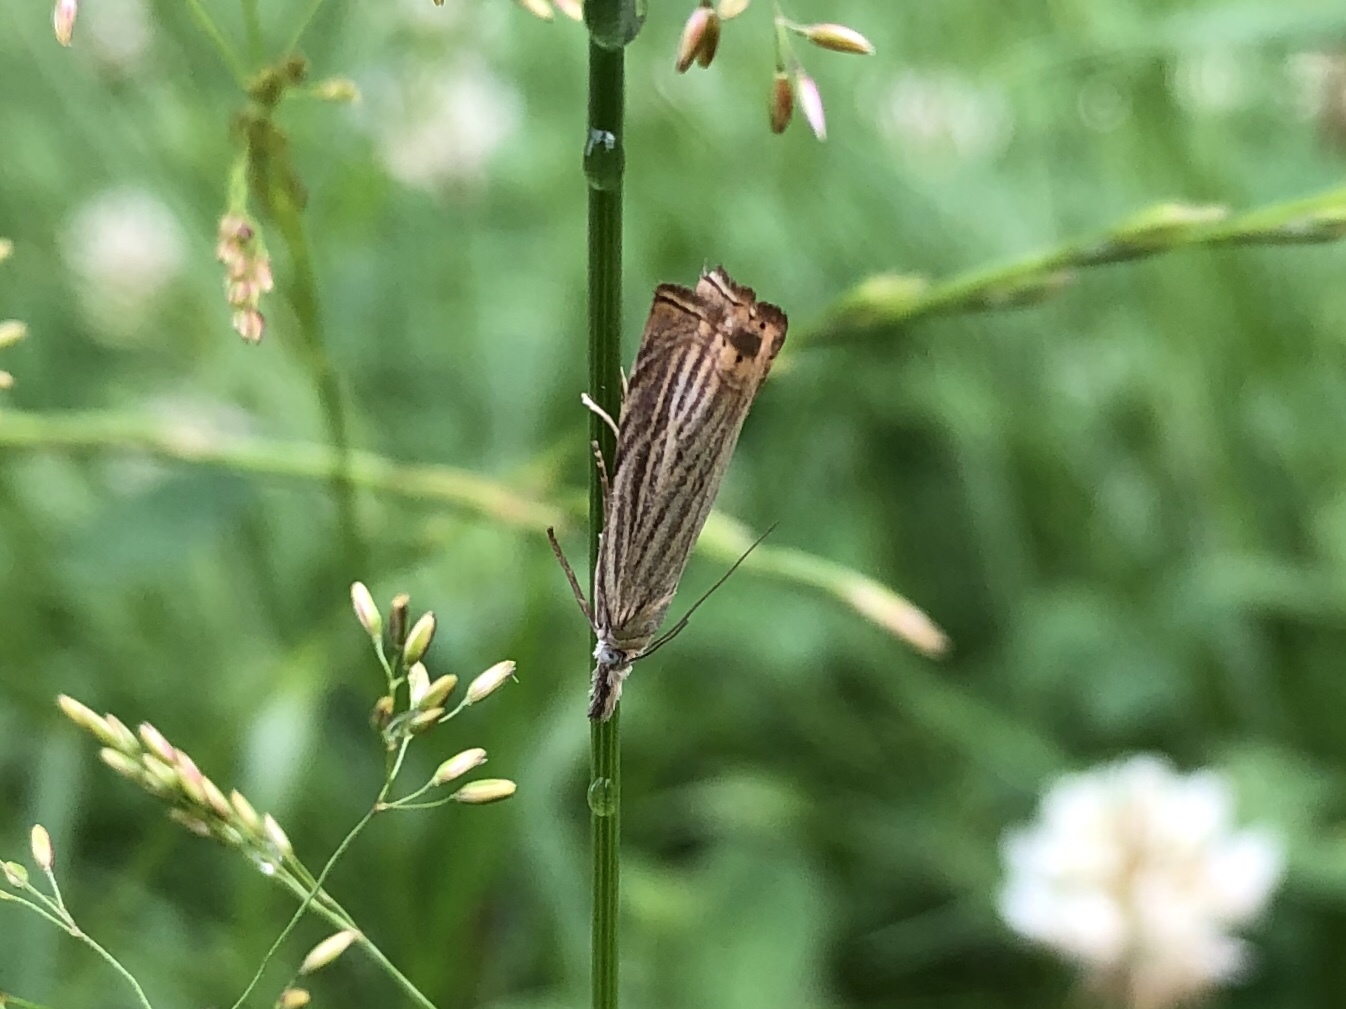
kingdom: Animalia
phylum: Arthropoda
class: Insecta
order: Lepidoptera
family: Crambidae
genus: Chrysoteuchia
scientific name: Chrysoteuchia culmella
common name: Garden grass-veneer
